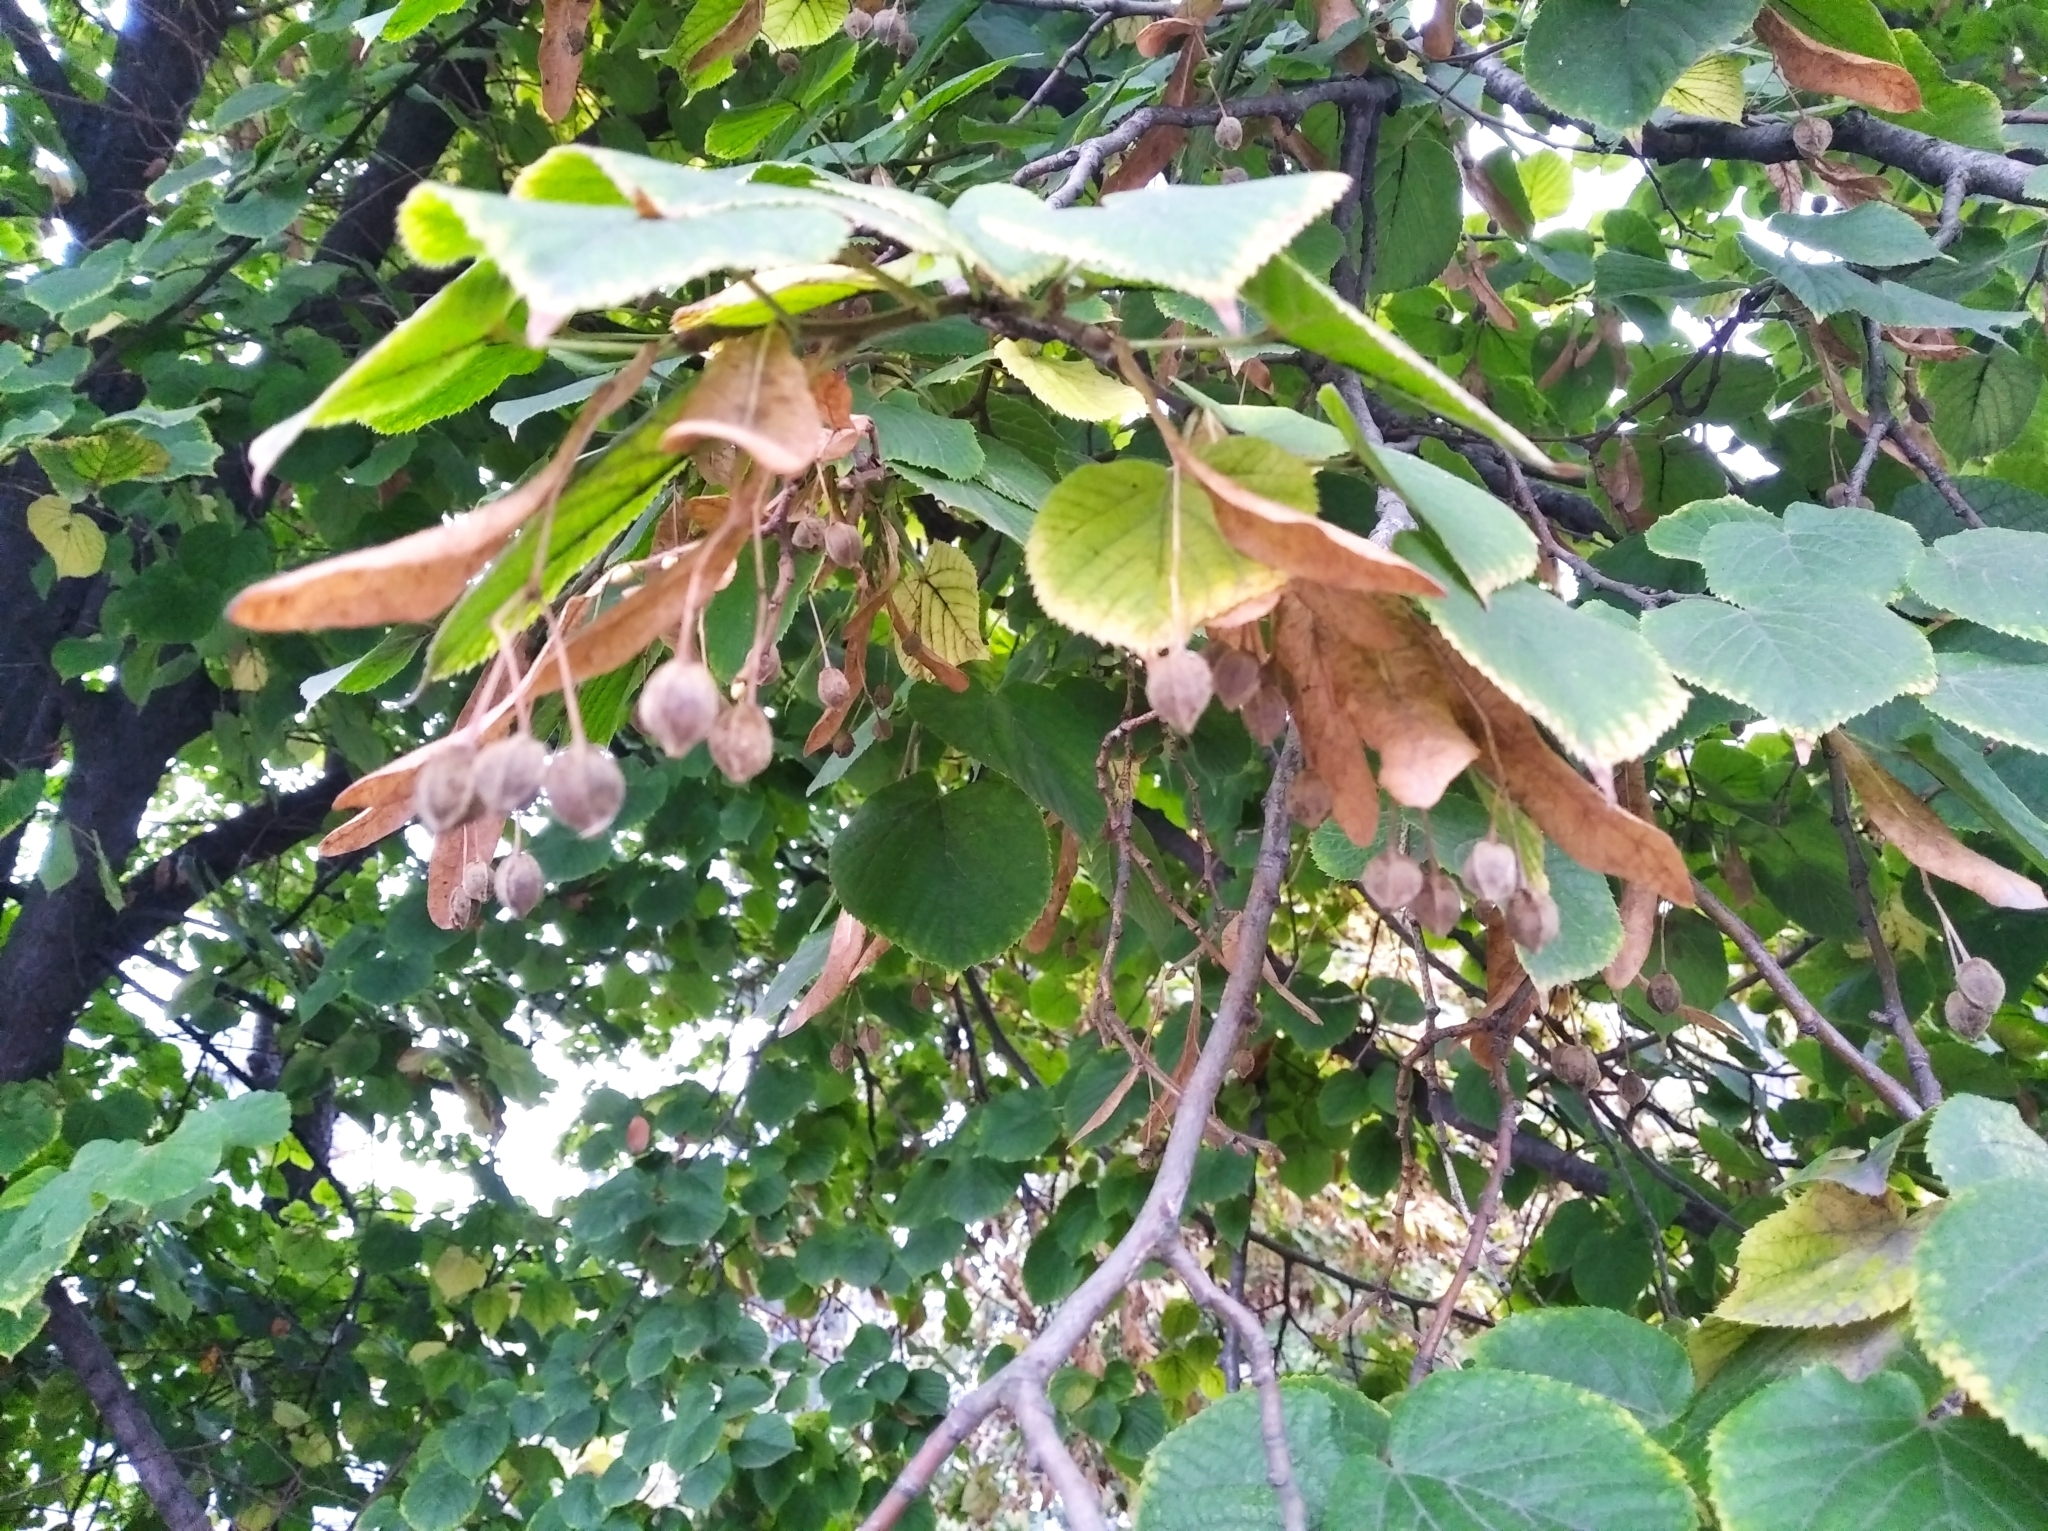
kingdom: Plantae
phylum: Tracheophyta
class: Magnoliopsida
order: Malvales
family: Malvaceae
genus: Tilia
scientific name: Tilia platyphyllos
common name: Large-leaved lime
